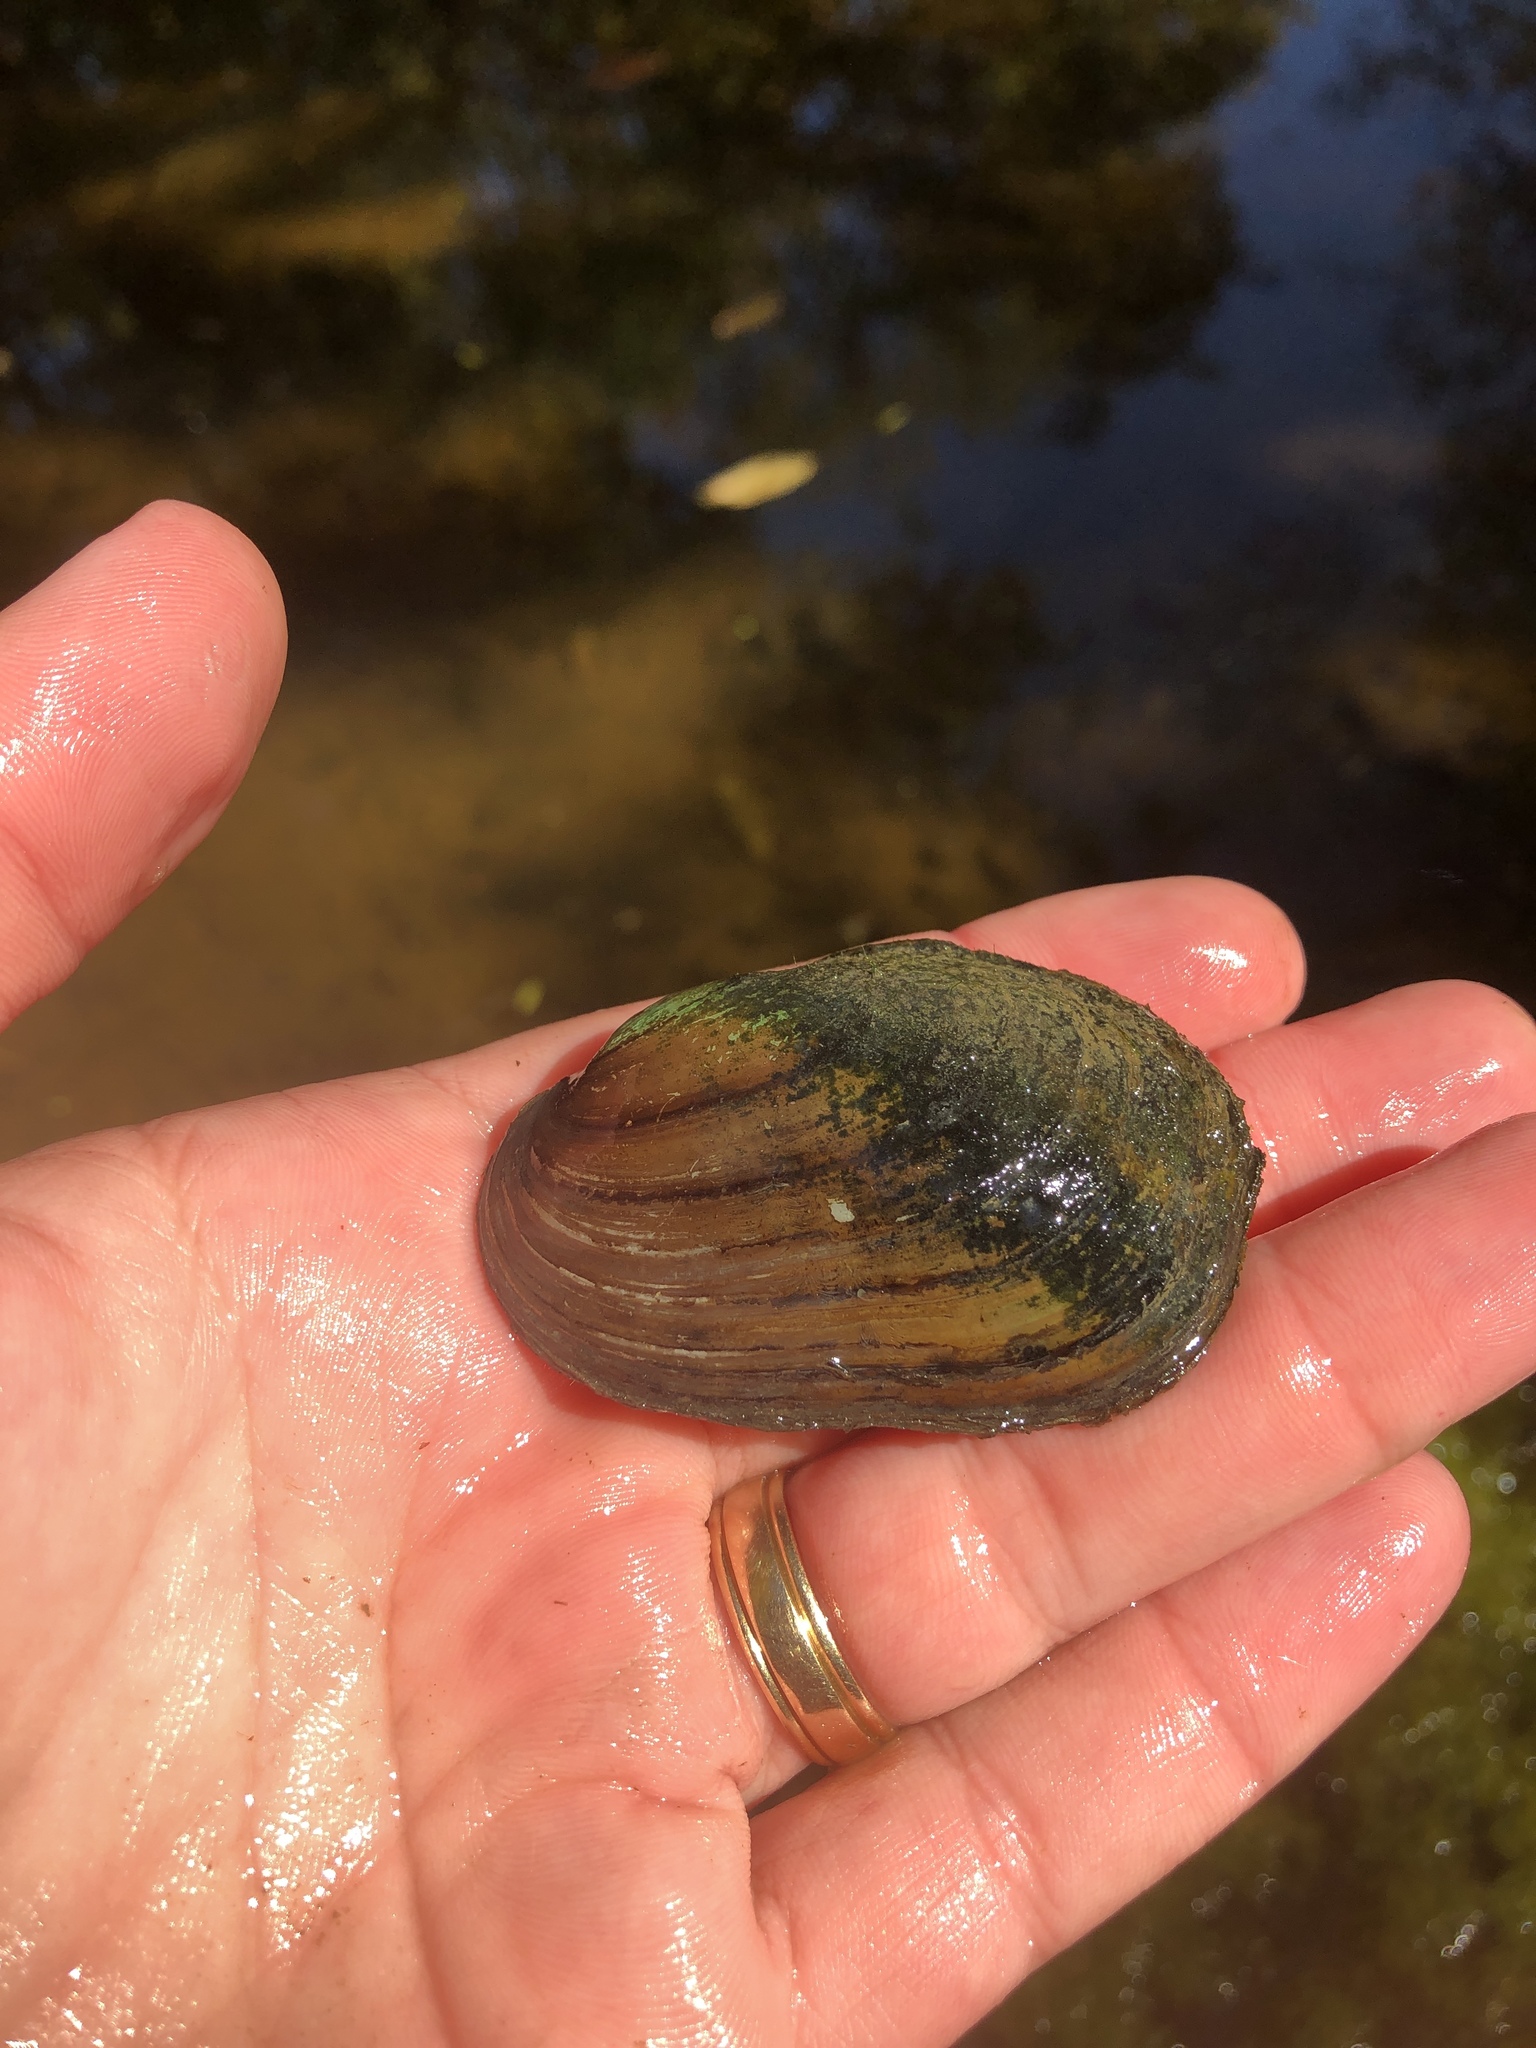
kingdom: Animalia
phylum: Mollusca
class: Bivalvia
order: Unionida
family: Unionidae
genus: Lampsilis
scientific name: Lampsilis siliquoidea
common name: Fatmucket
